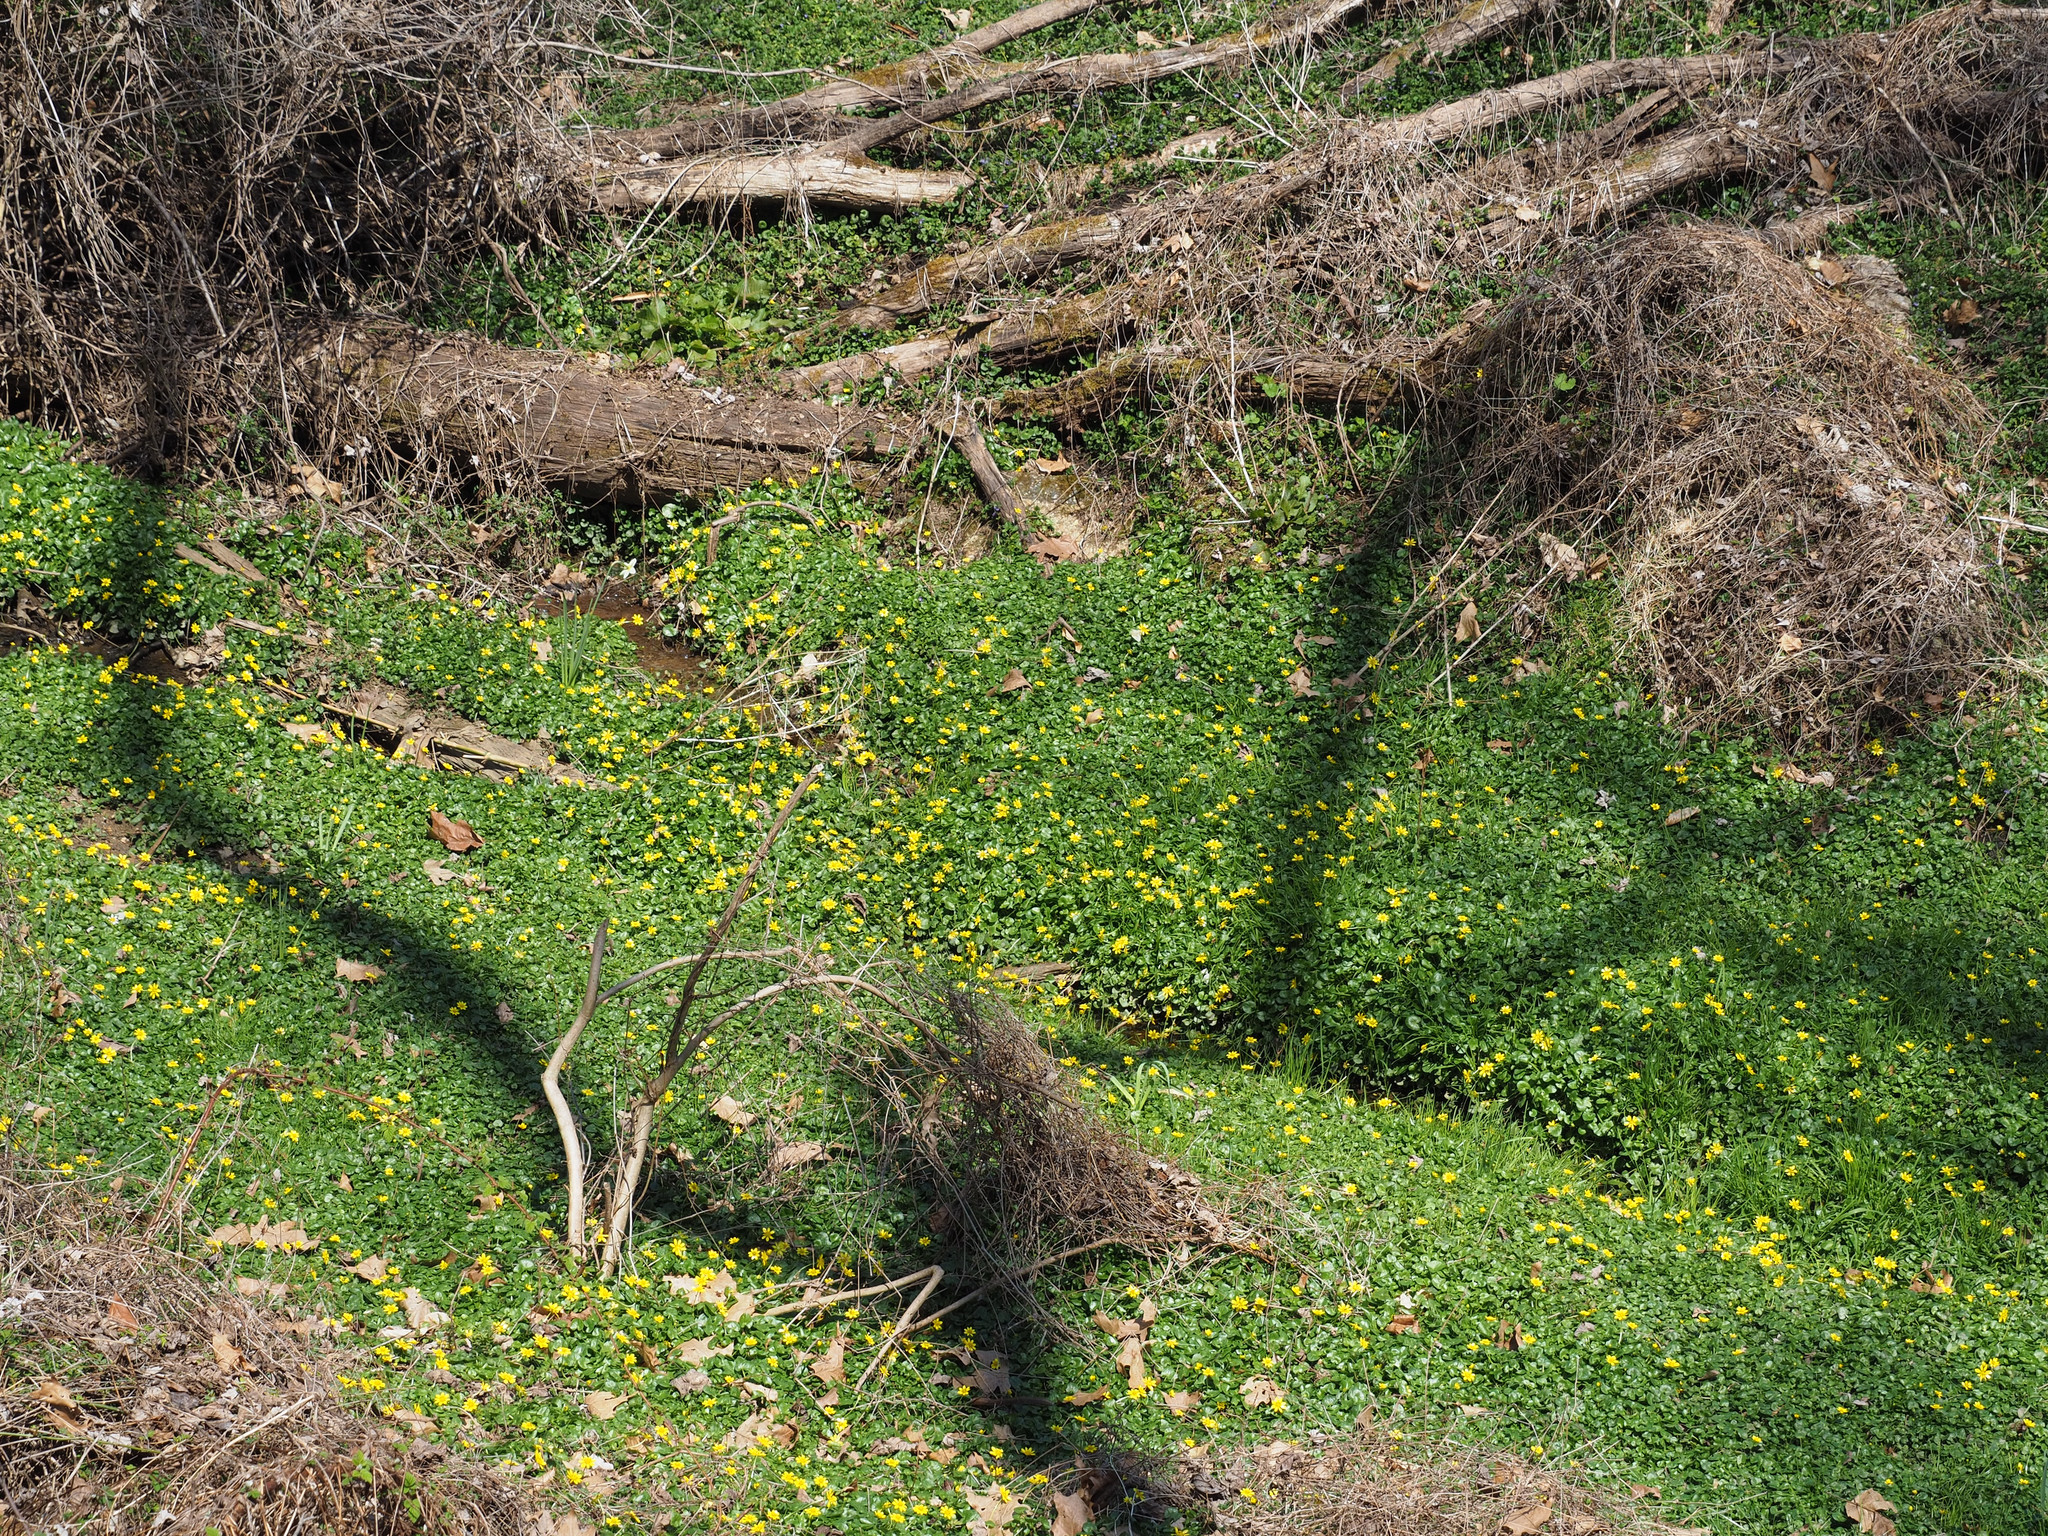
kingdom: Plantae
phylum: Tracheophyta
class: Magnoliopsida
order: Ranunculales
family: Ranunculaceae
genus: Ficaria
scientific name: Ficaria verna
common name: Lesser celandine
